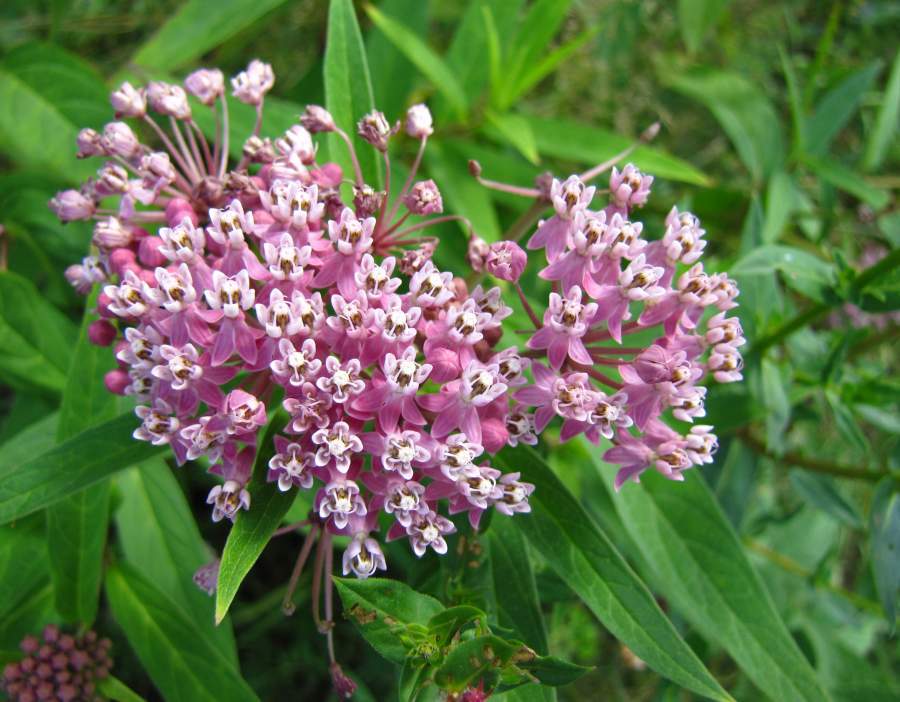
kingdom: Plantae
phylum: Tracheophyta
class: Magnoliopsida
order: Gentianales
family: Apocynaceae
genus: Asclepias
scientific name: Asclepias incarnata
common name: Swamp milkweed
